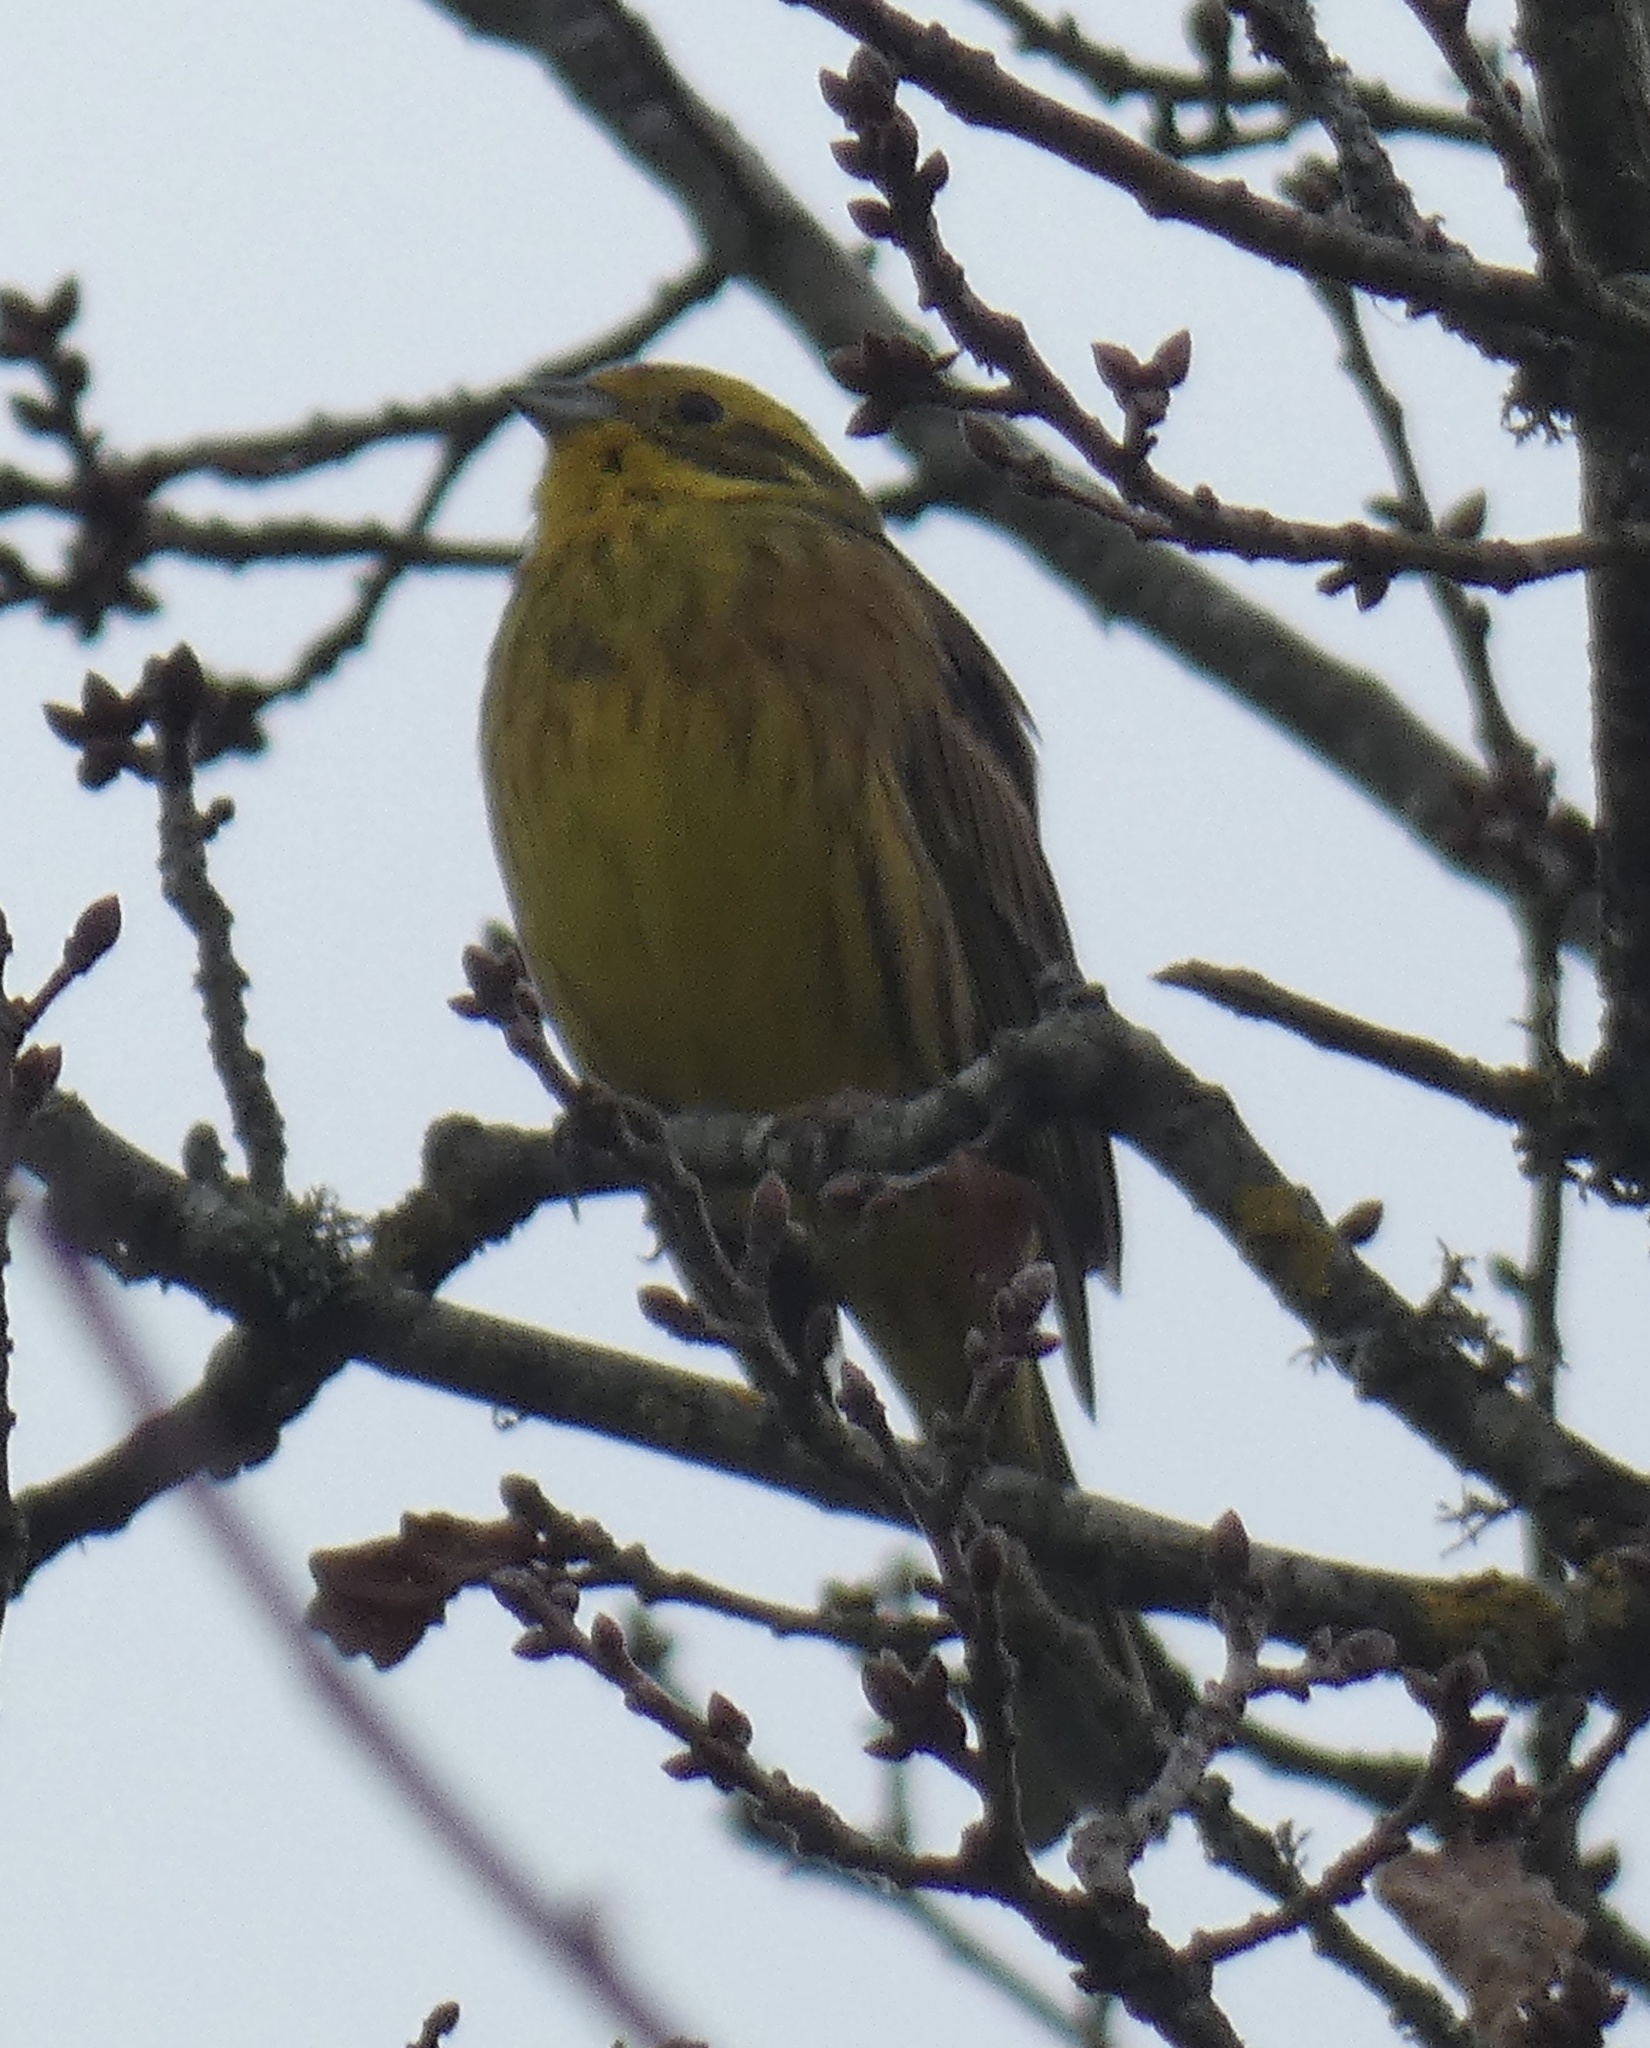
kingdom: Animalia
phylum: Chordata
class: Aves
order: Passeriformes
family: Emberizidae
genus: Emberiza
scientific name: Emberiza citrinella
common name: Yellowhammer
